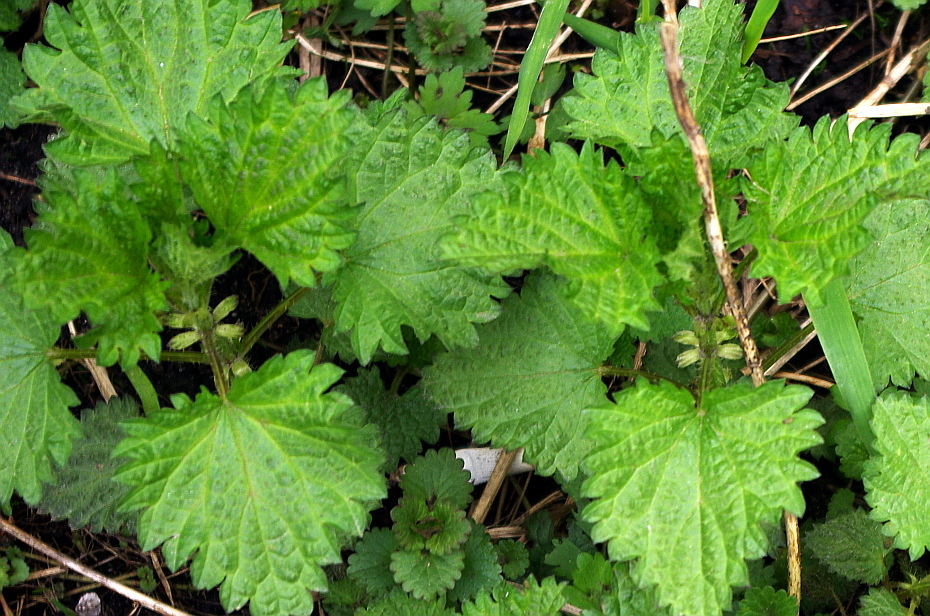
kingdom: Plantae
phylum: Tracheophyta
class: Magnoliopsida
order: Rosales
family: Urticaceae
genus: Urtica
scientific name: Urtica dioica
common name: Common nettle
